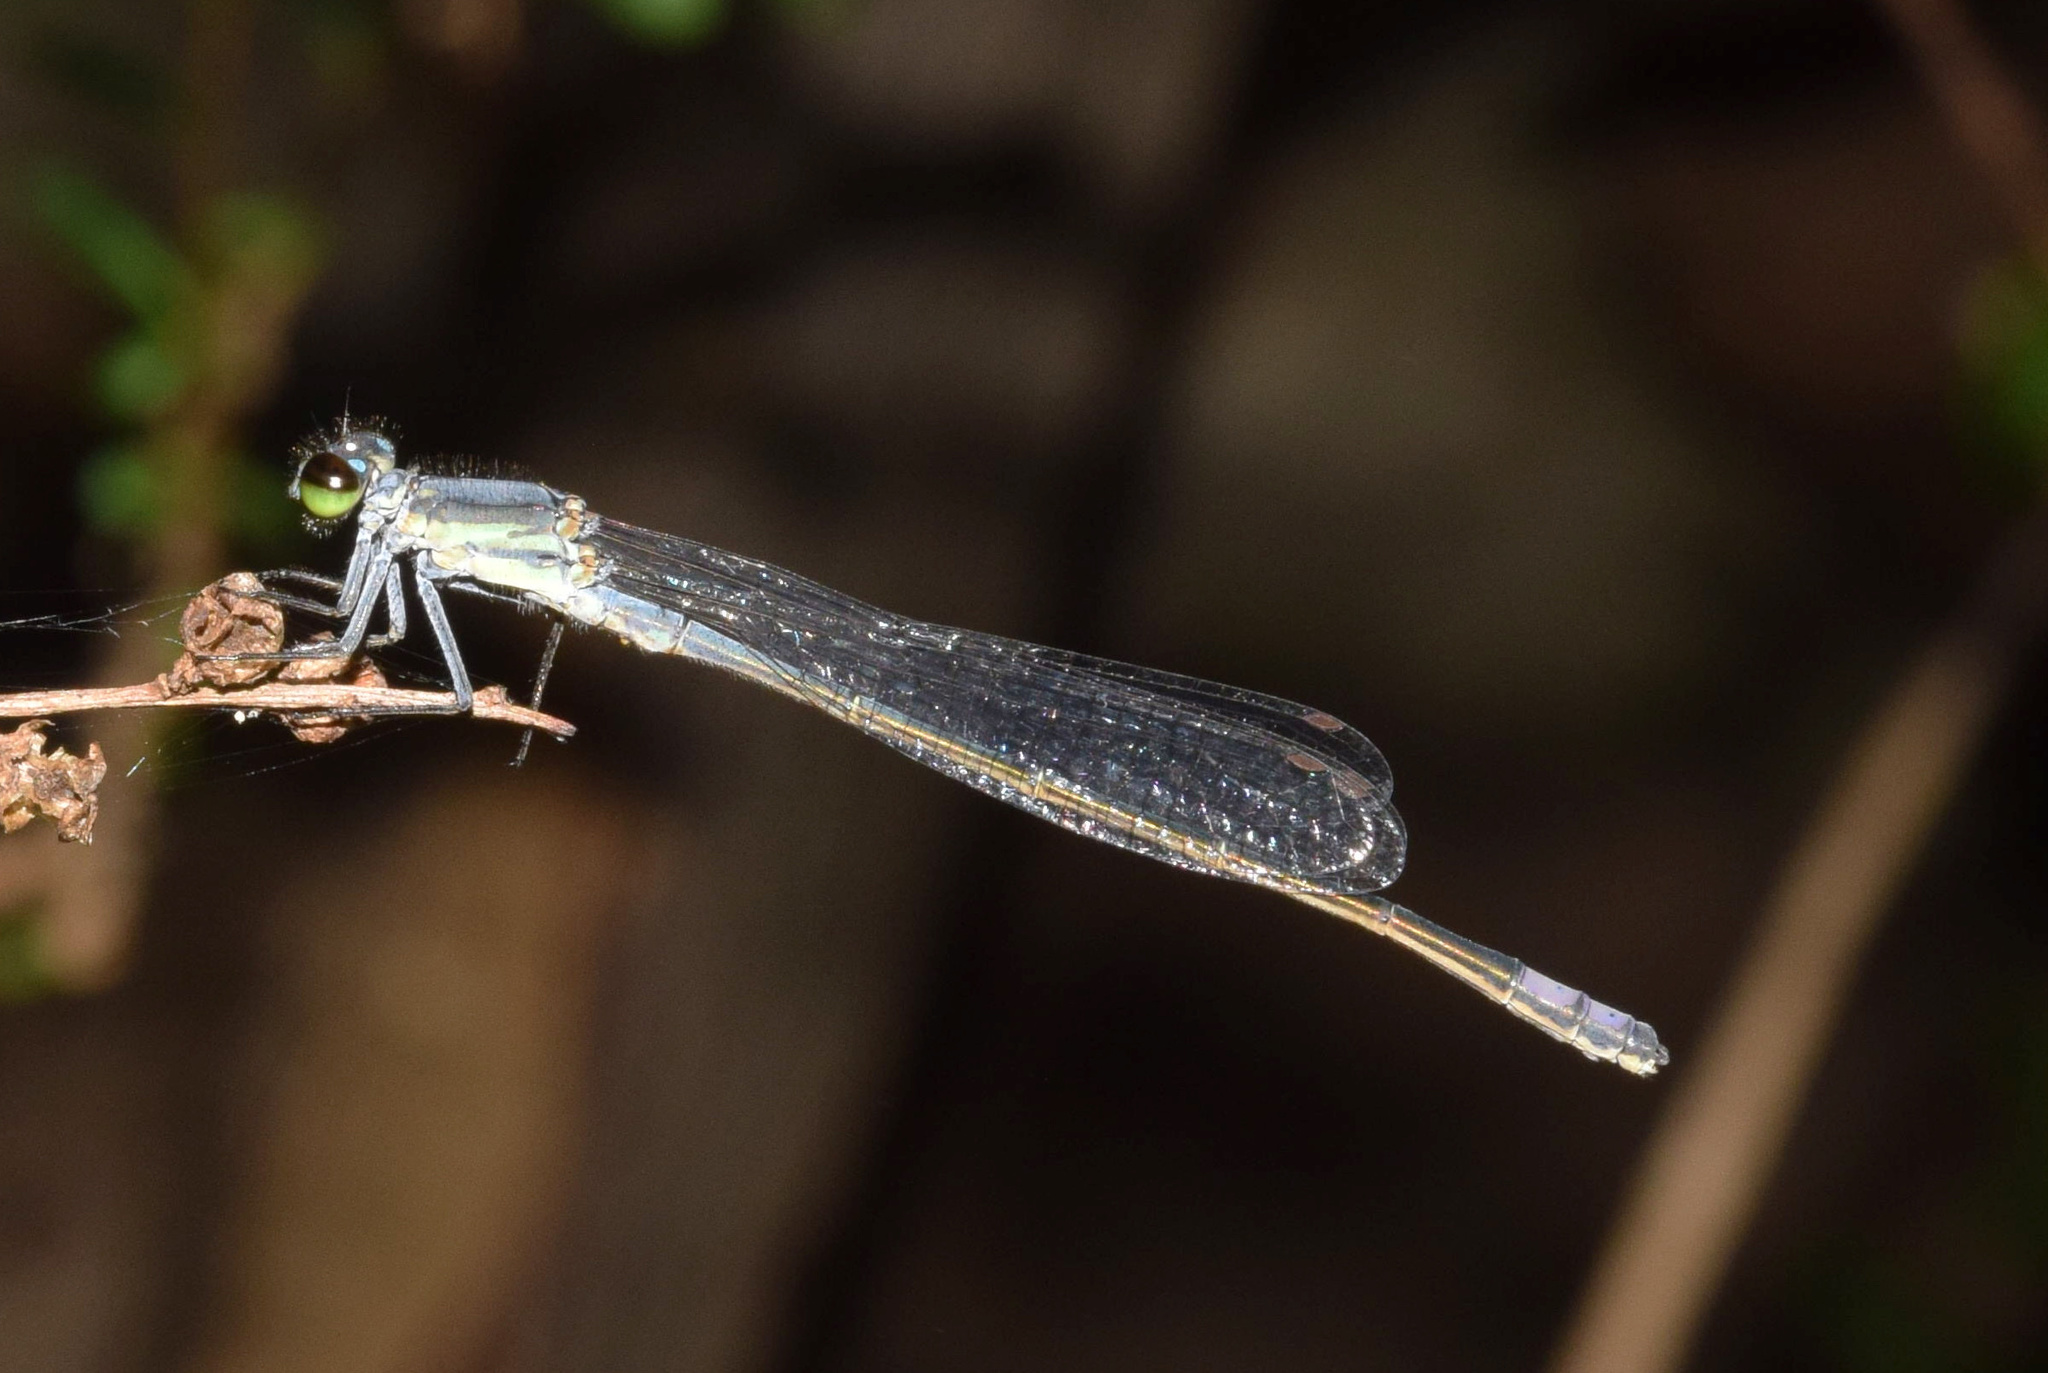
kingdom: Animalia
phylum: Arthropoda
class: Insecta
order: Odonata
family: Coenagrionidae
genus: Pseudagrion
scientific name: Pseudagrion salisburyense
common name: Slate sprite
